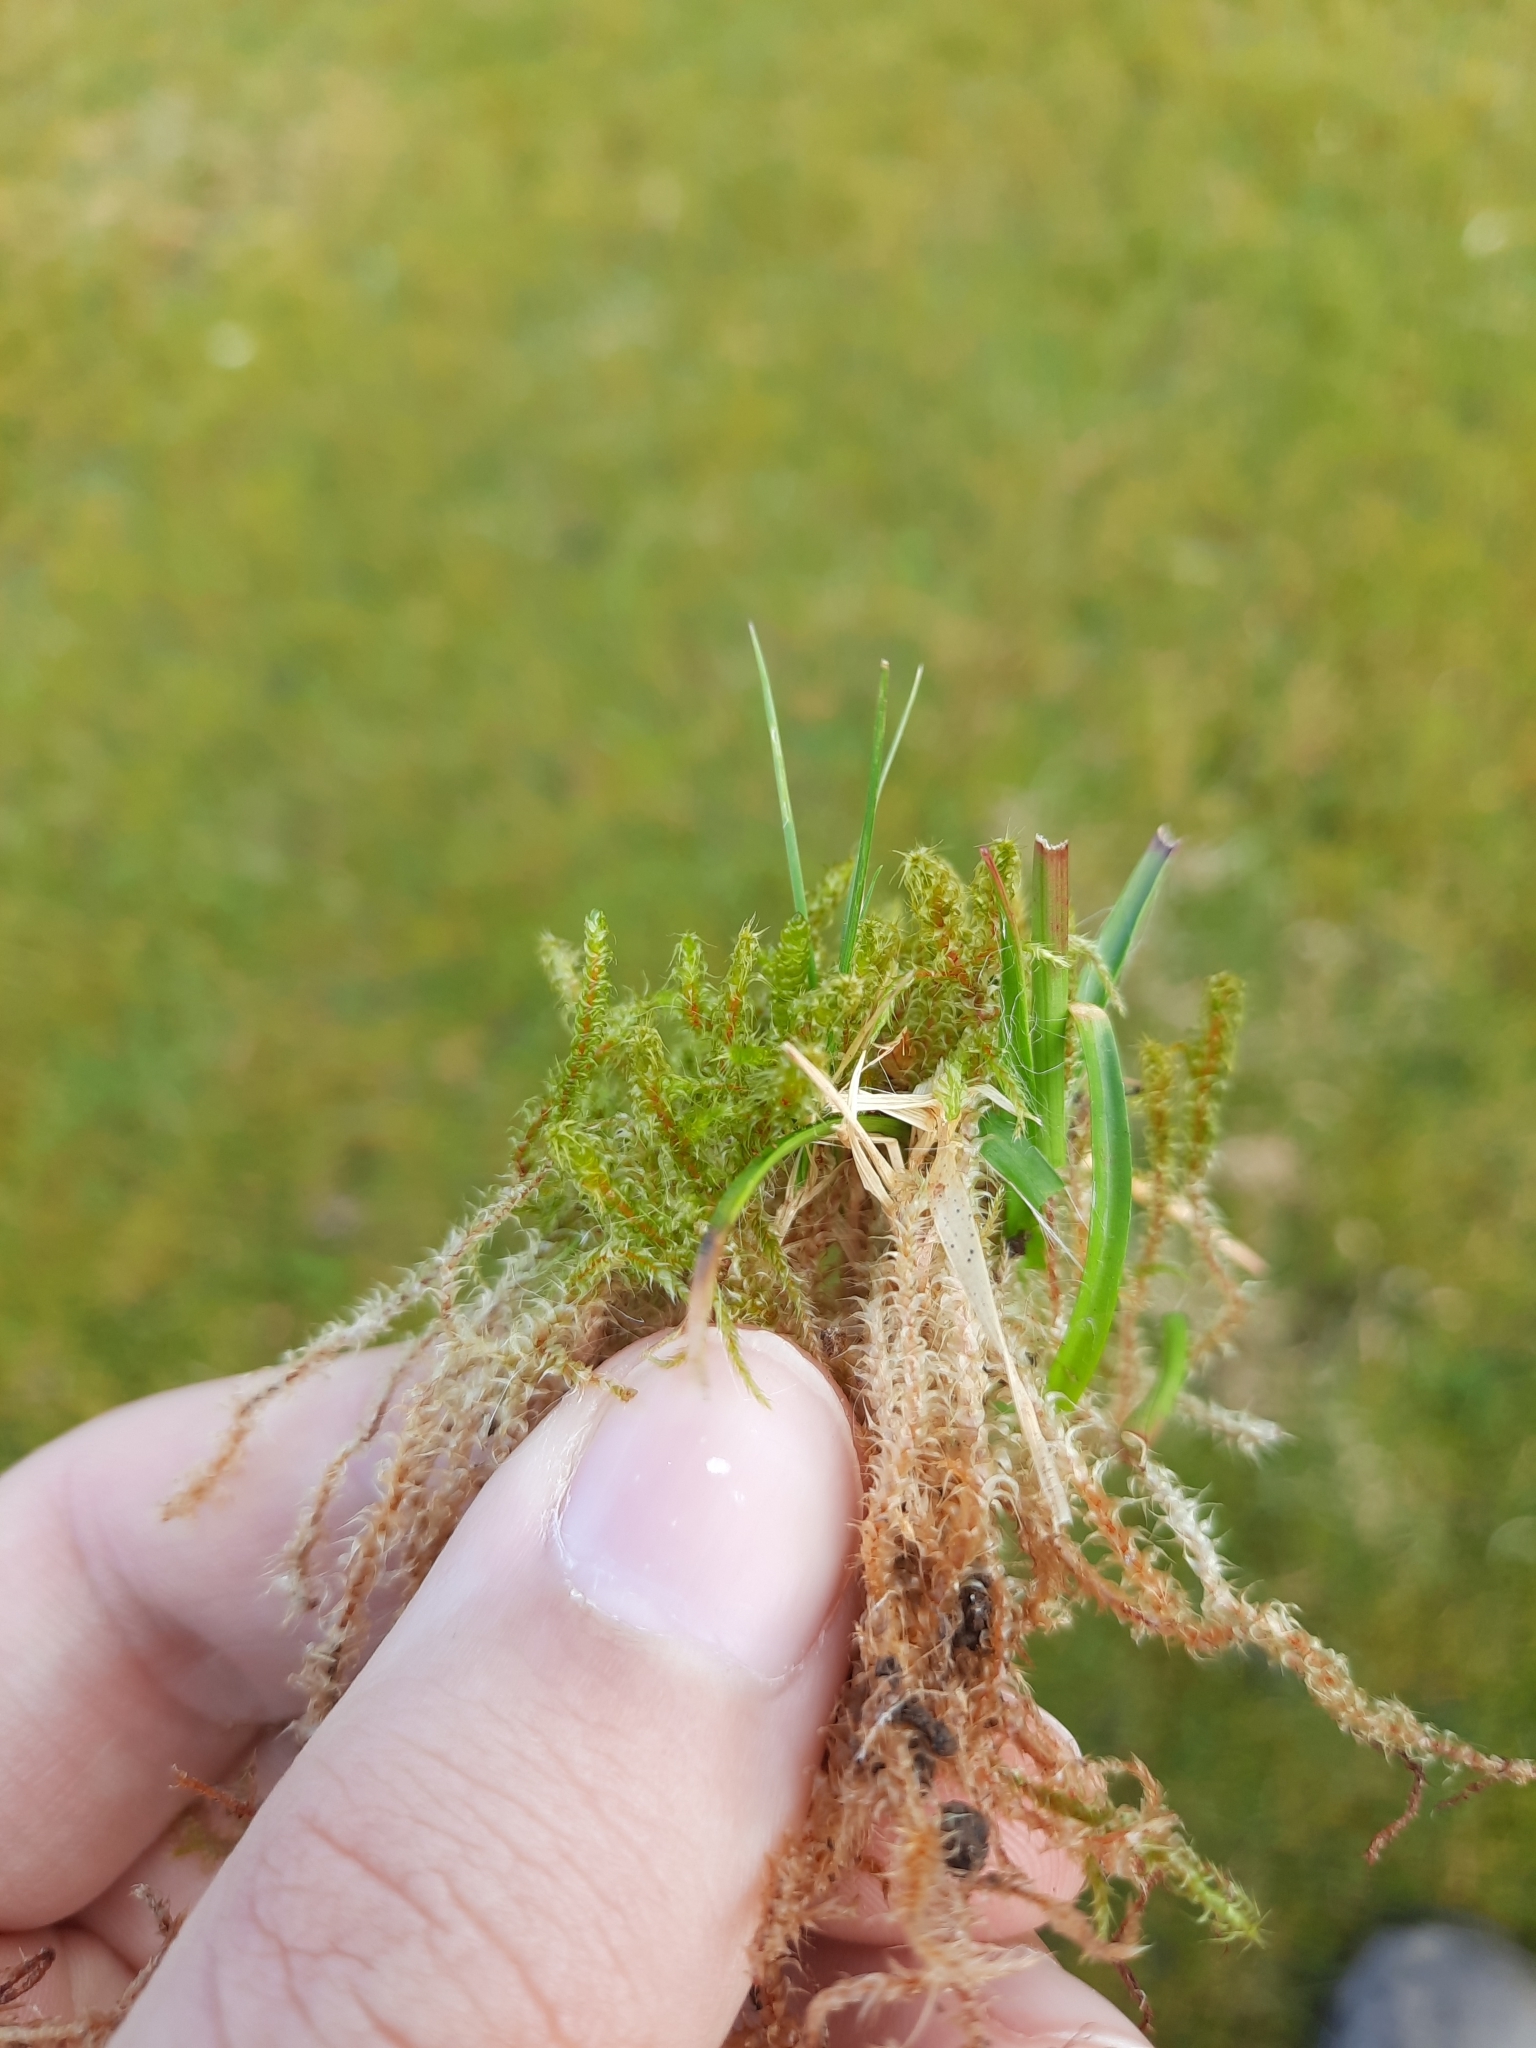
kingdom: Plantae
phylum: Bryophyta
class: Bryopsida
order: Hypnales
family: Hylocomiaceae
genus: Rhytidiadelphus
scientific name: Rhytidiadelphus squarrosus
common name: Springy turf-moss
